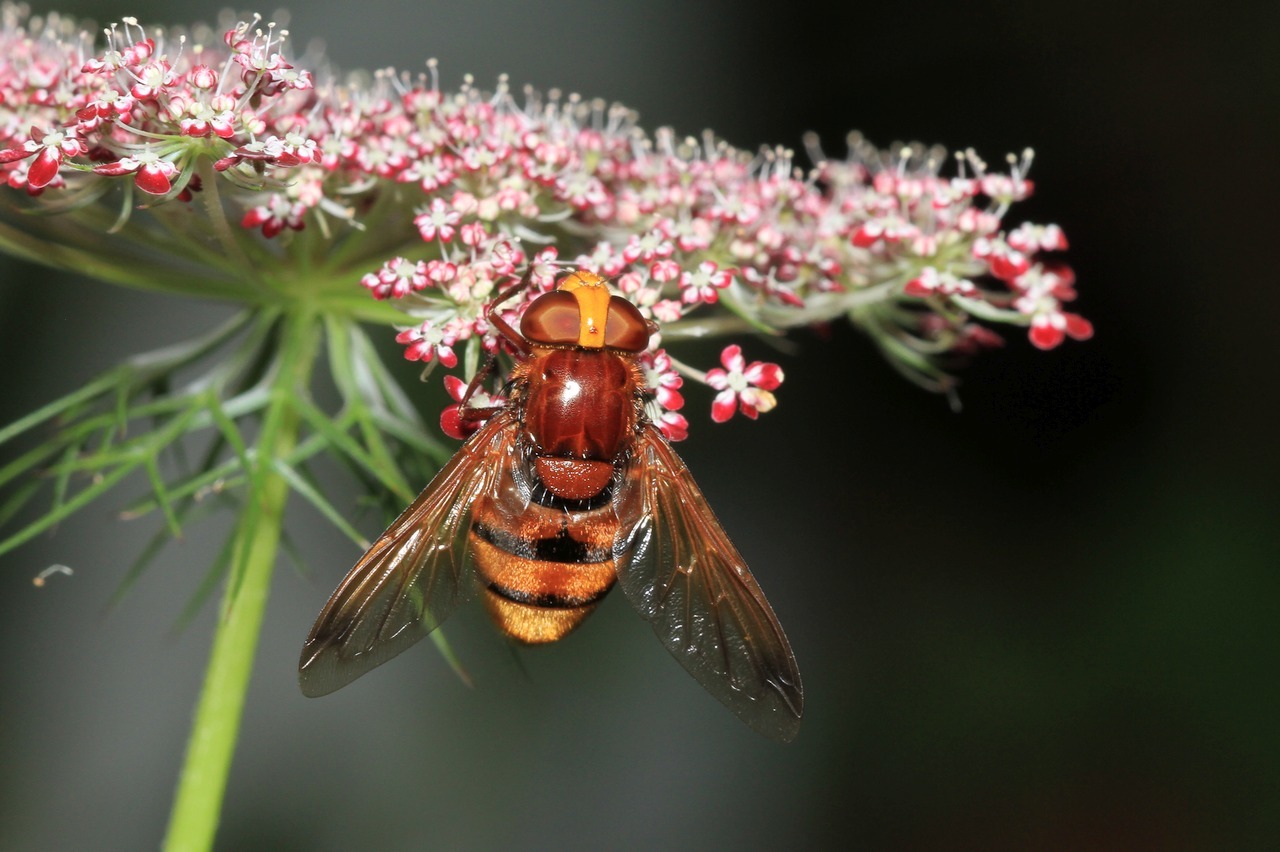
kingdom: Animalia
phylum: Arthropoda
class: Insecta
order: Diptera
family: Syrphidae
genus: Volucella
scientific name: Volucella zonaria
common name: Hornet hoverfly
